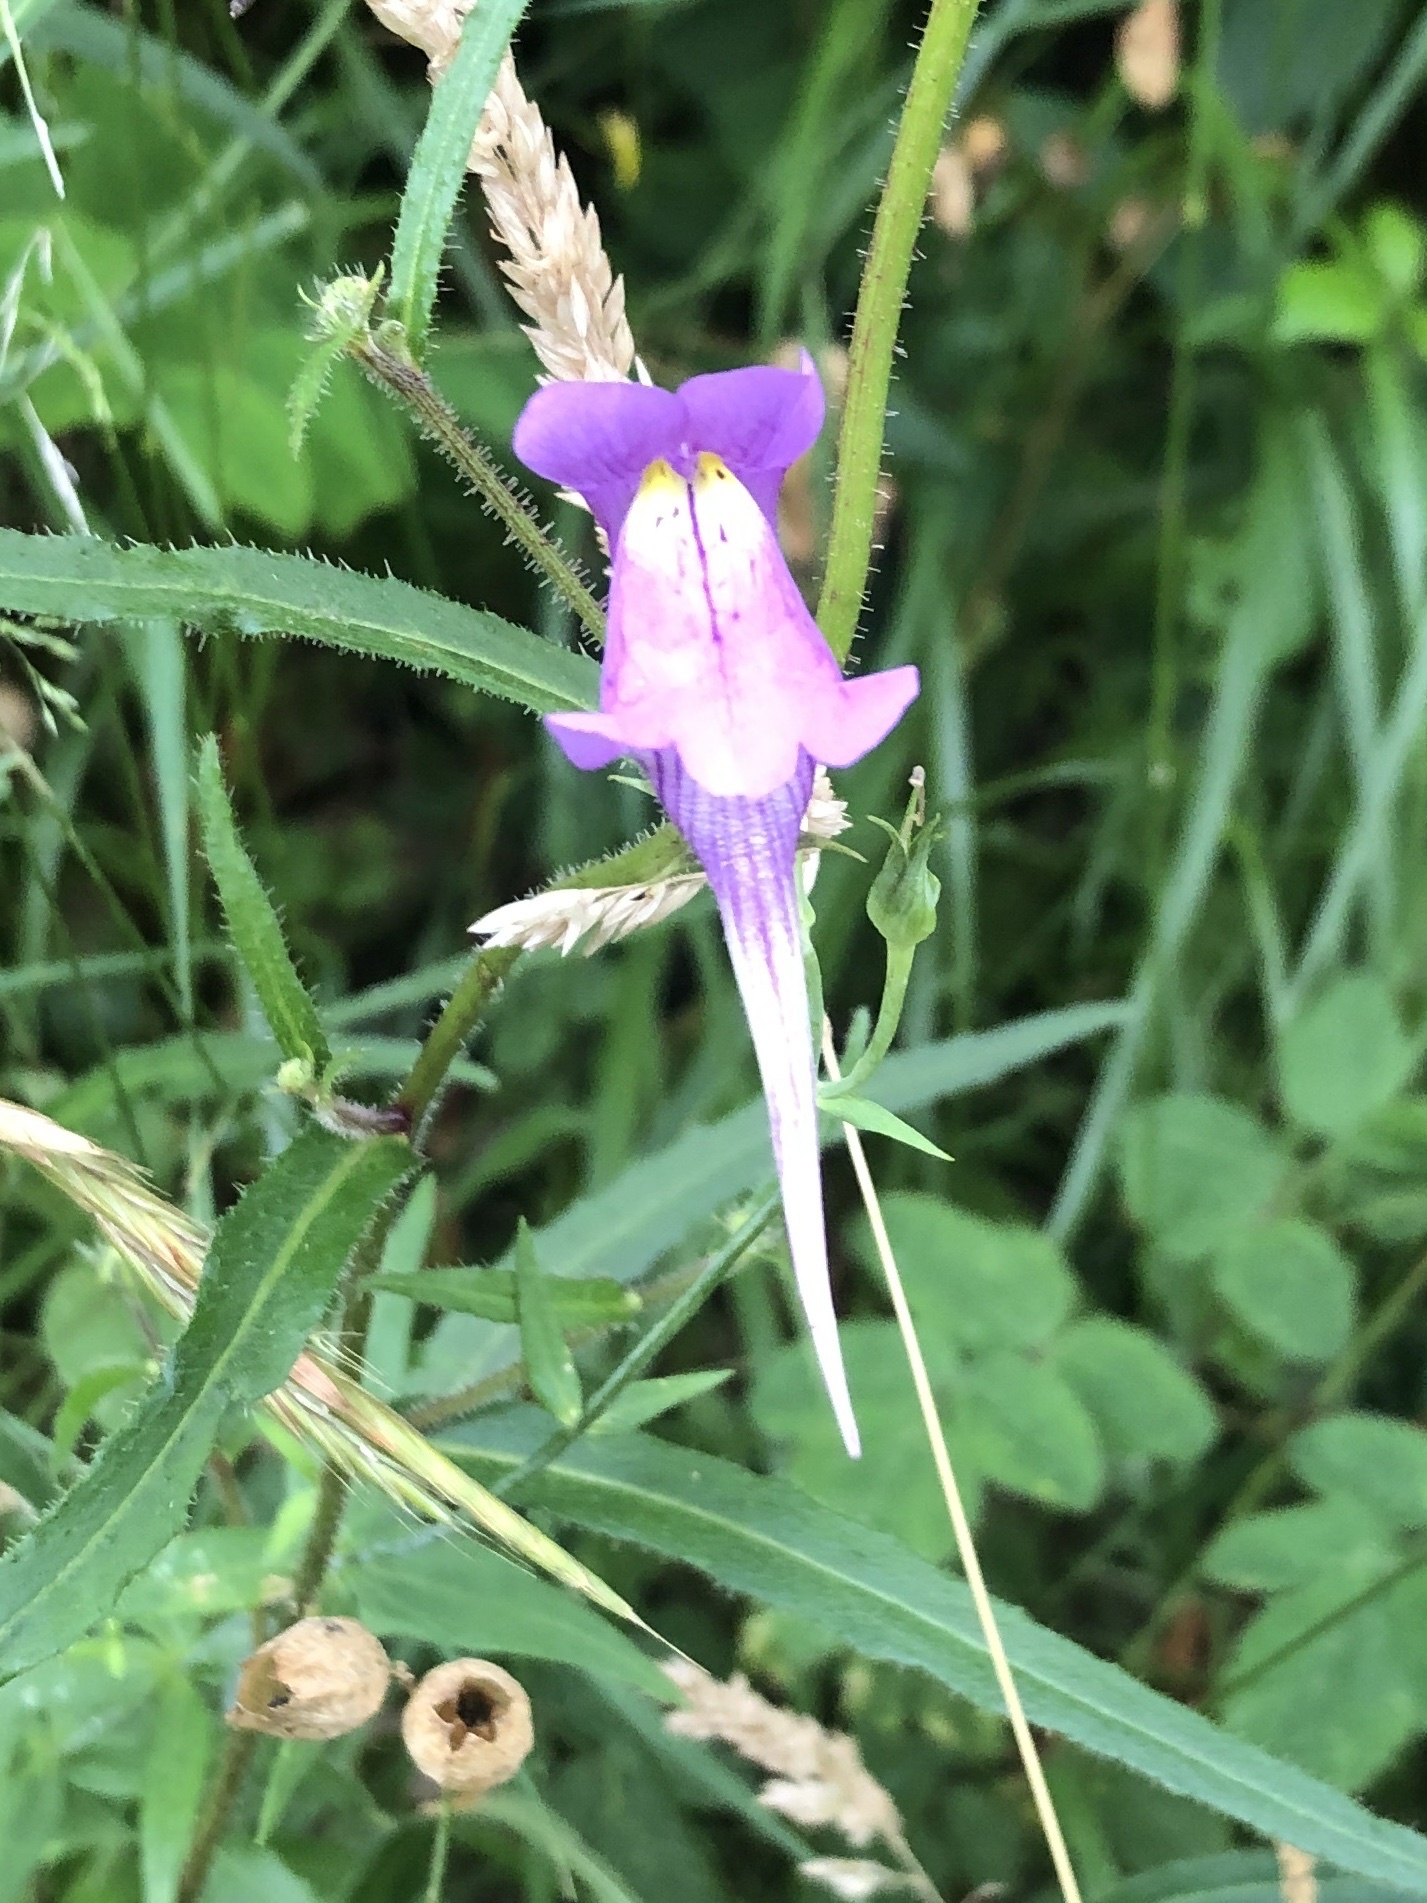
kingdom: Plantae
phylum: Tracheophyta
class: Magnoliopsida
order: Lamiales
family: Plantaginaceae
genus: Linaria
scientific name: Linaria triornithophora
